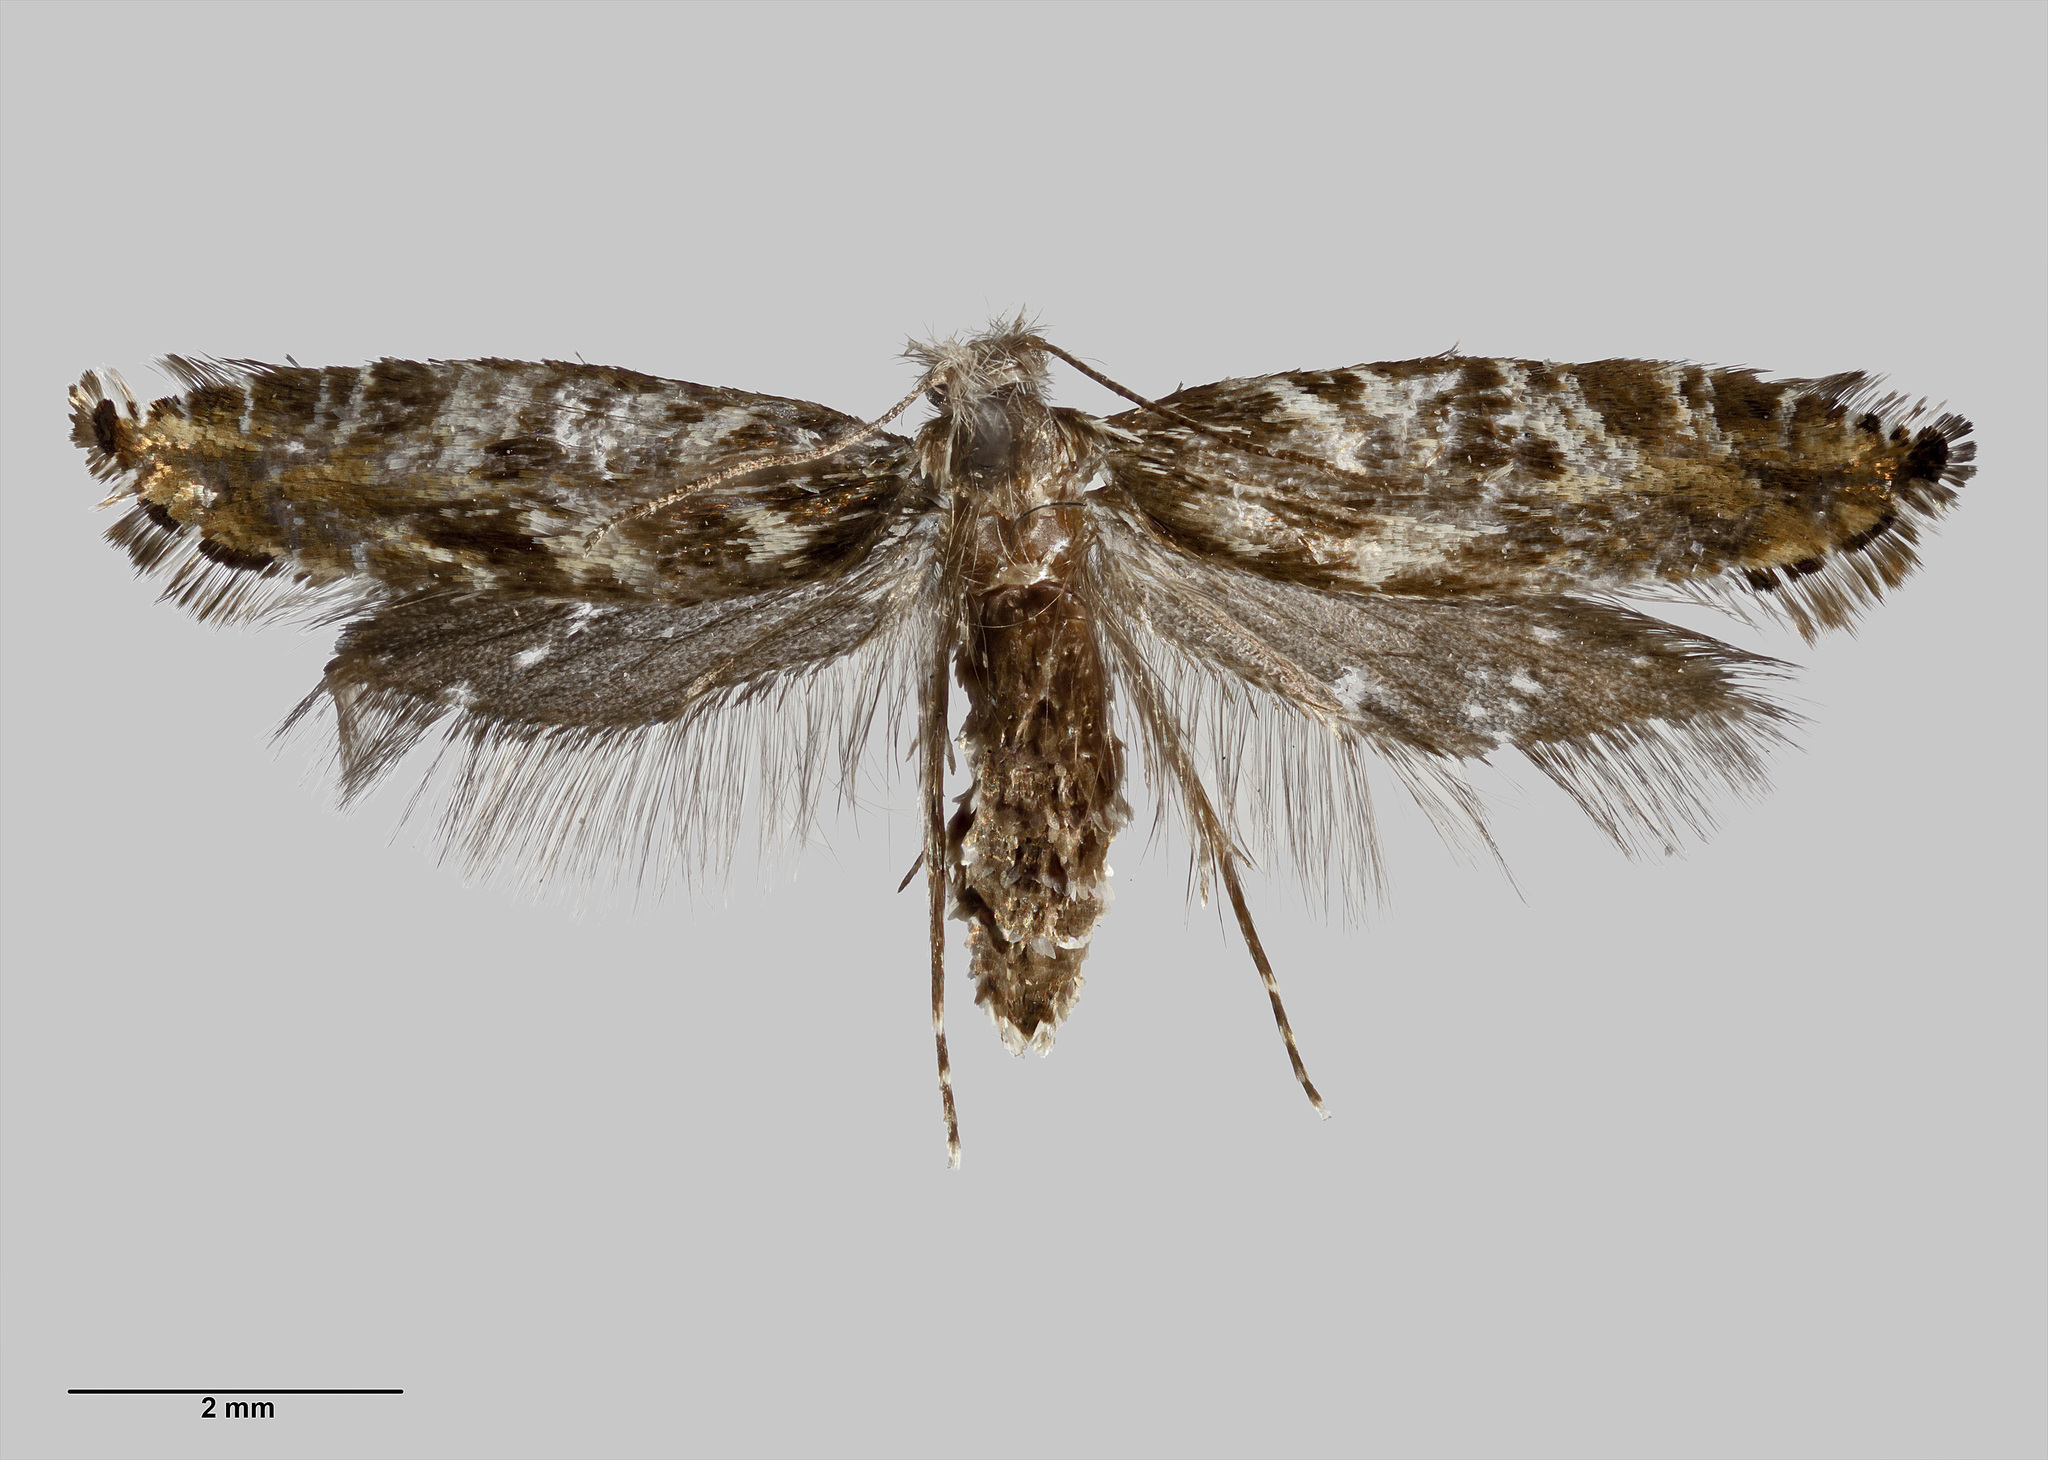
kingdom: Animalia
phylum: Arthropoda
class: Insecta
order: Lepidoptera
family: Tineidae
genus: Tinea
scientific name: Tinea astraea
